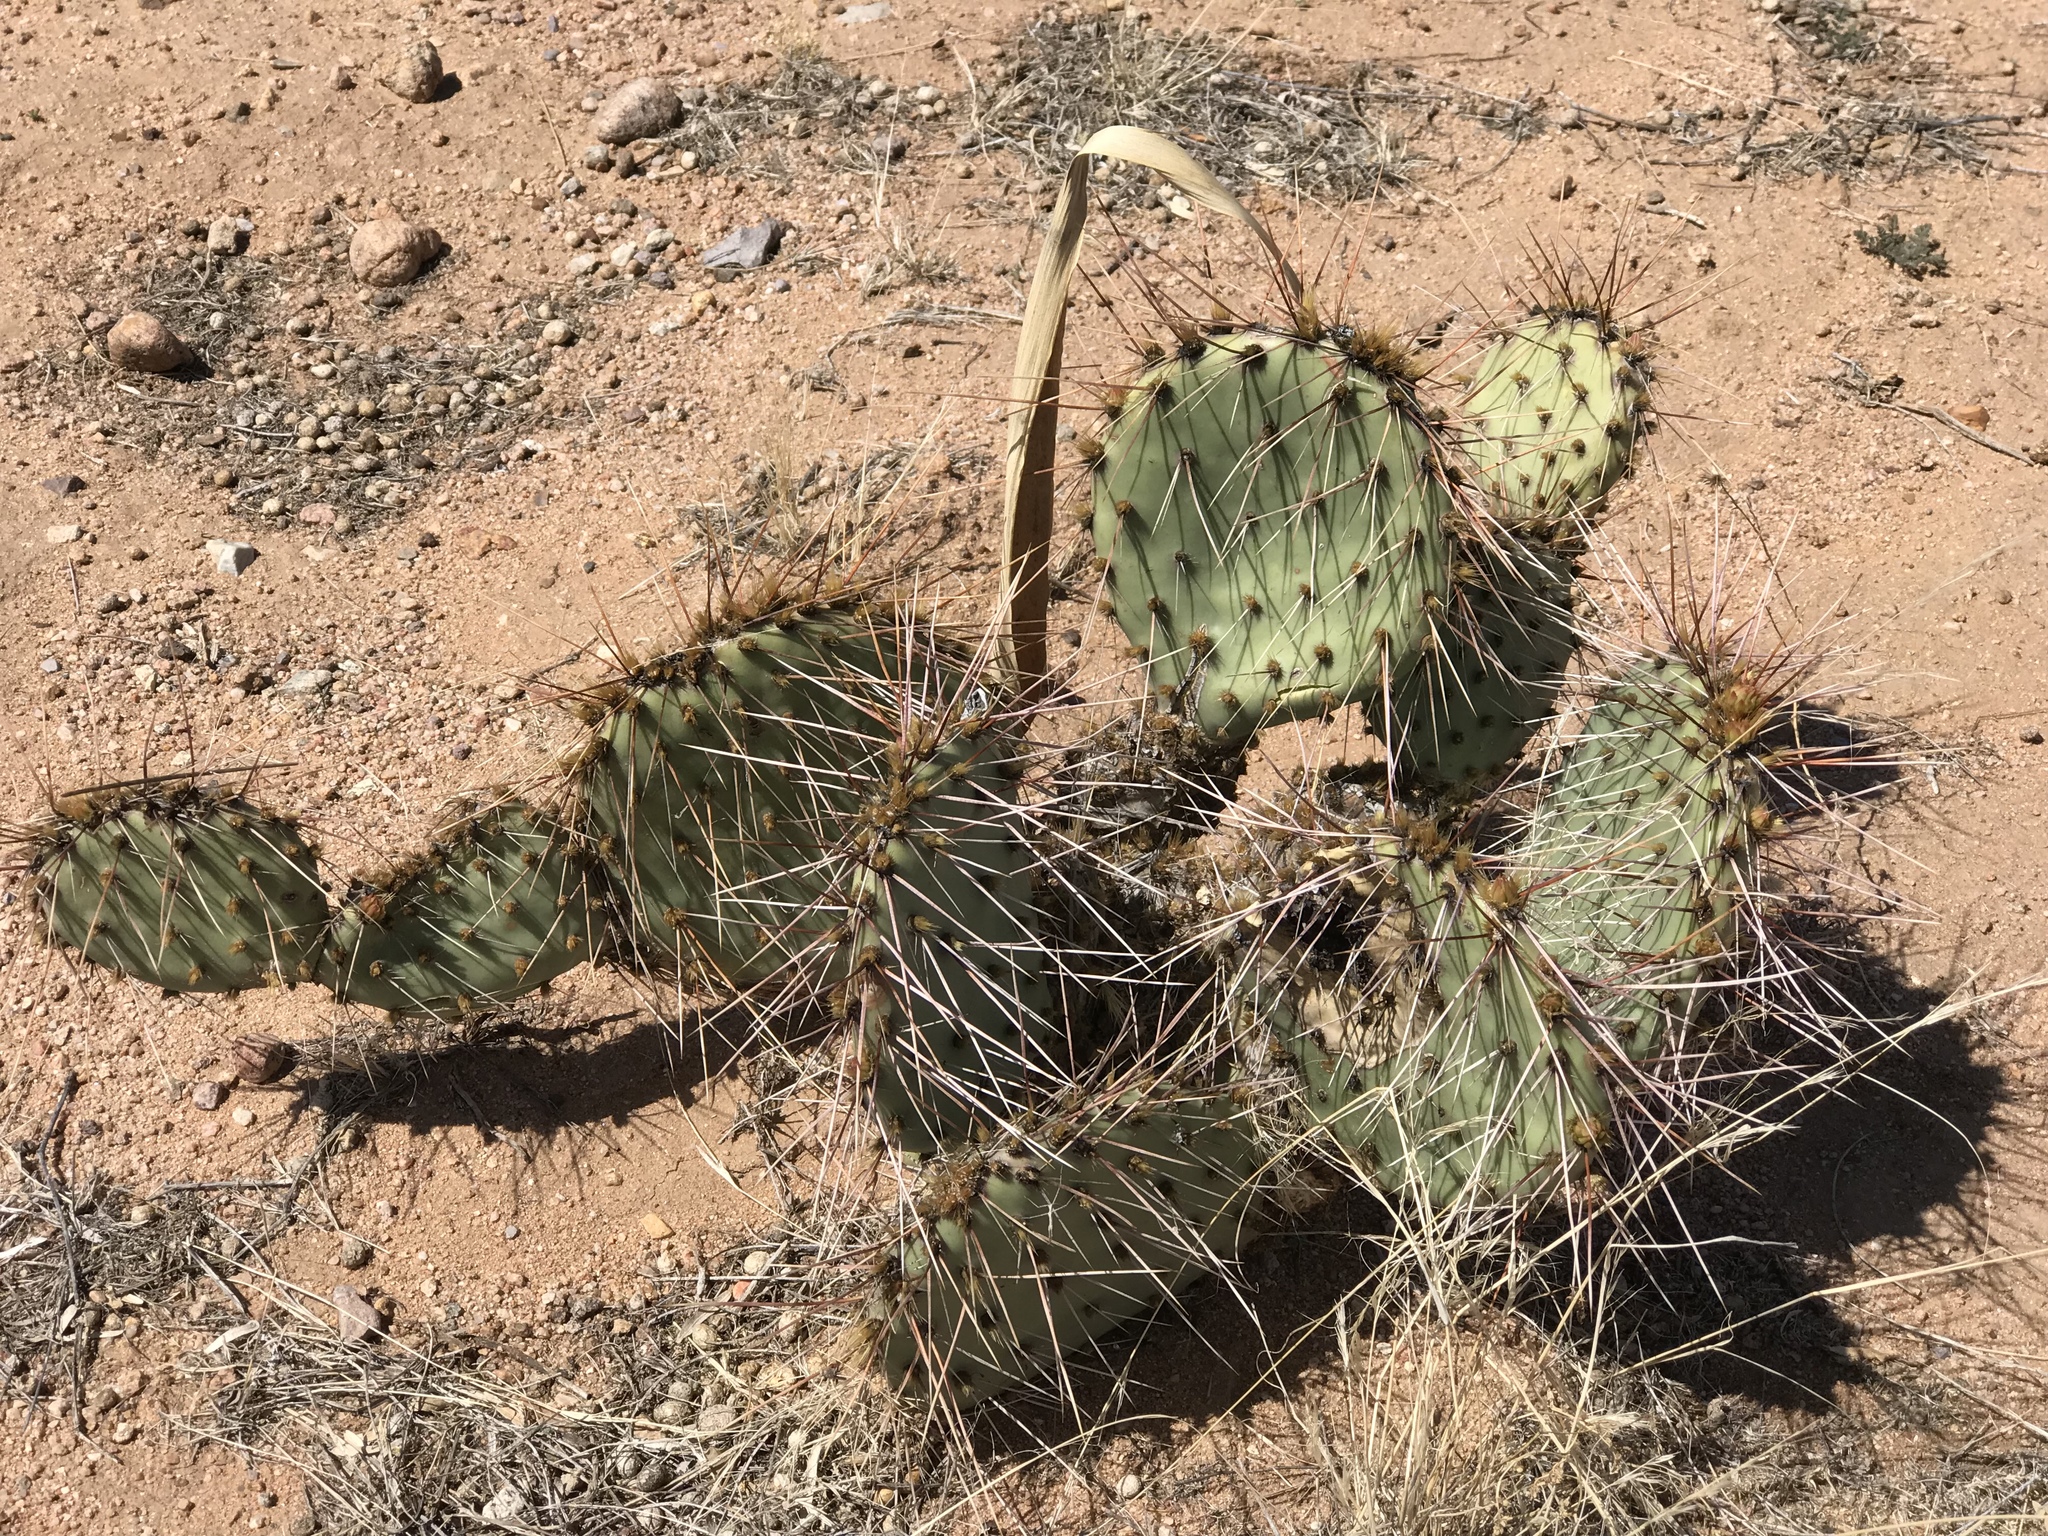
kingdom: Plantae
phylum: Tracheophyta
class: Magnoliopsida
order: Caryophyllales
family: Cactaceae
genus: Opuntia
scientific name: Opuntia macrorhiza
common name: Grassland pricklypear
